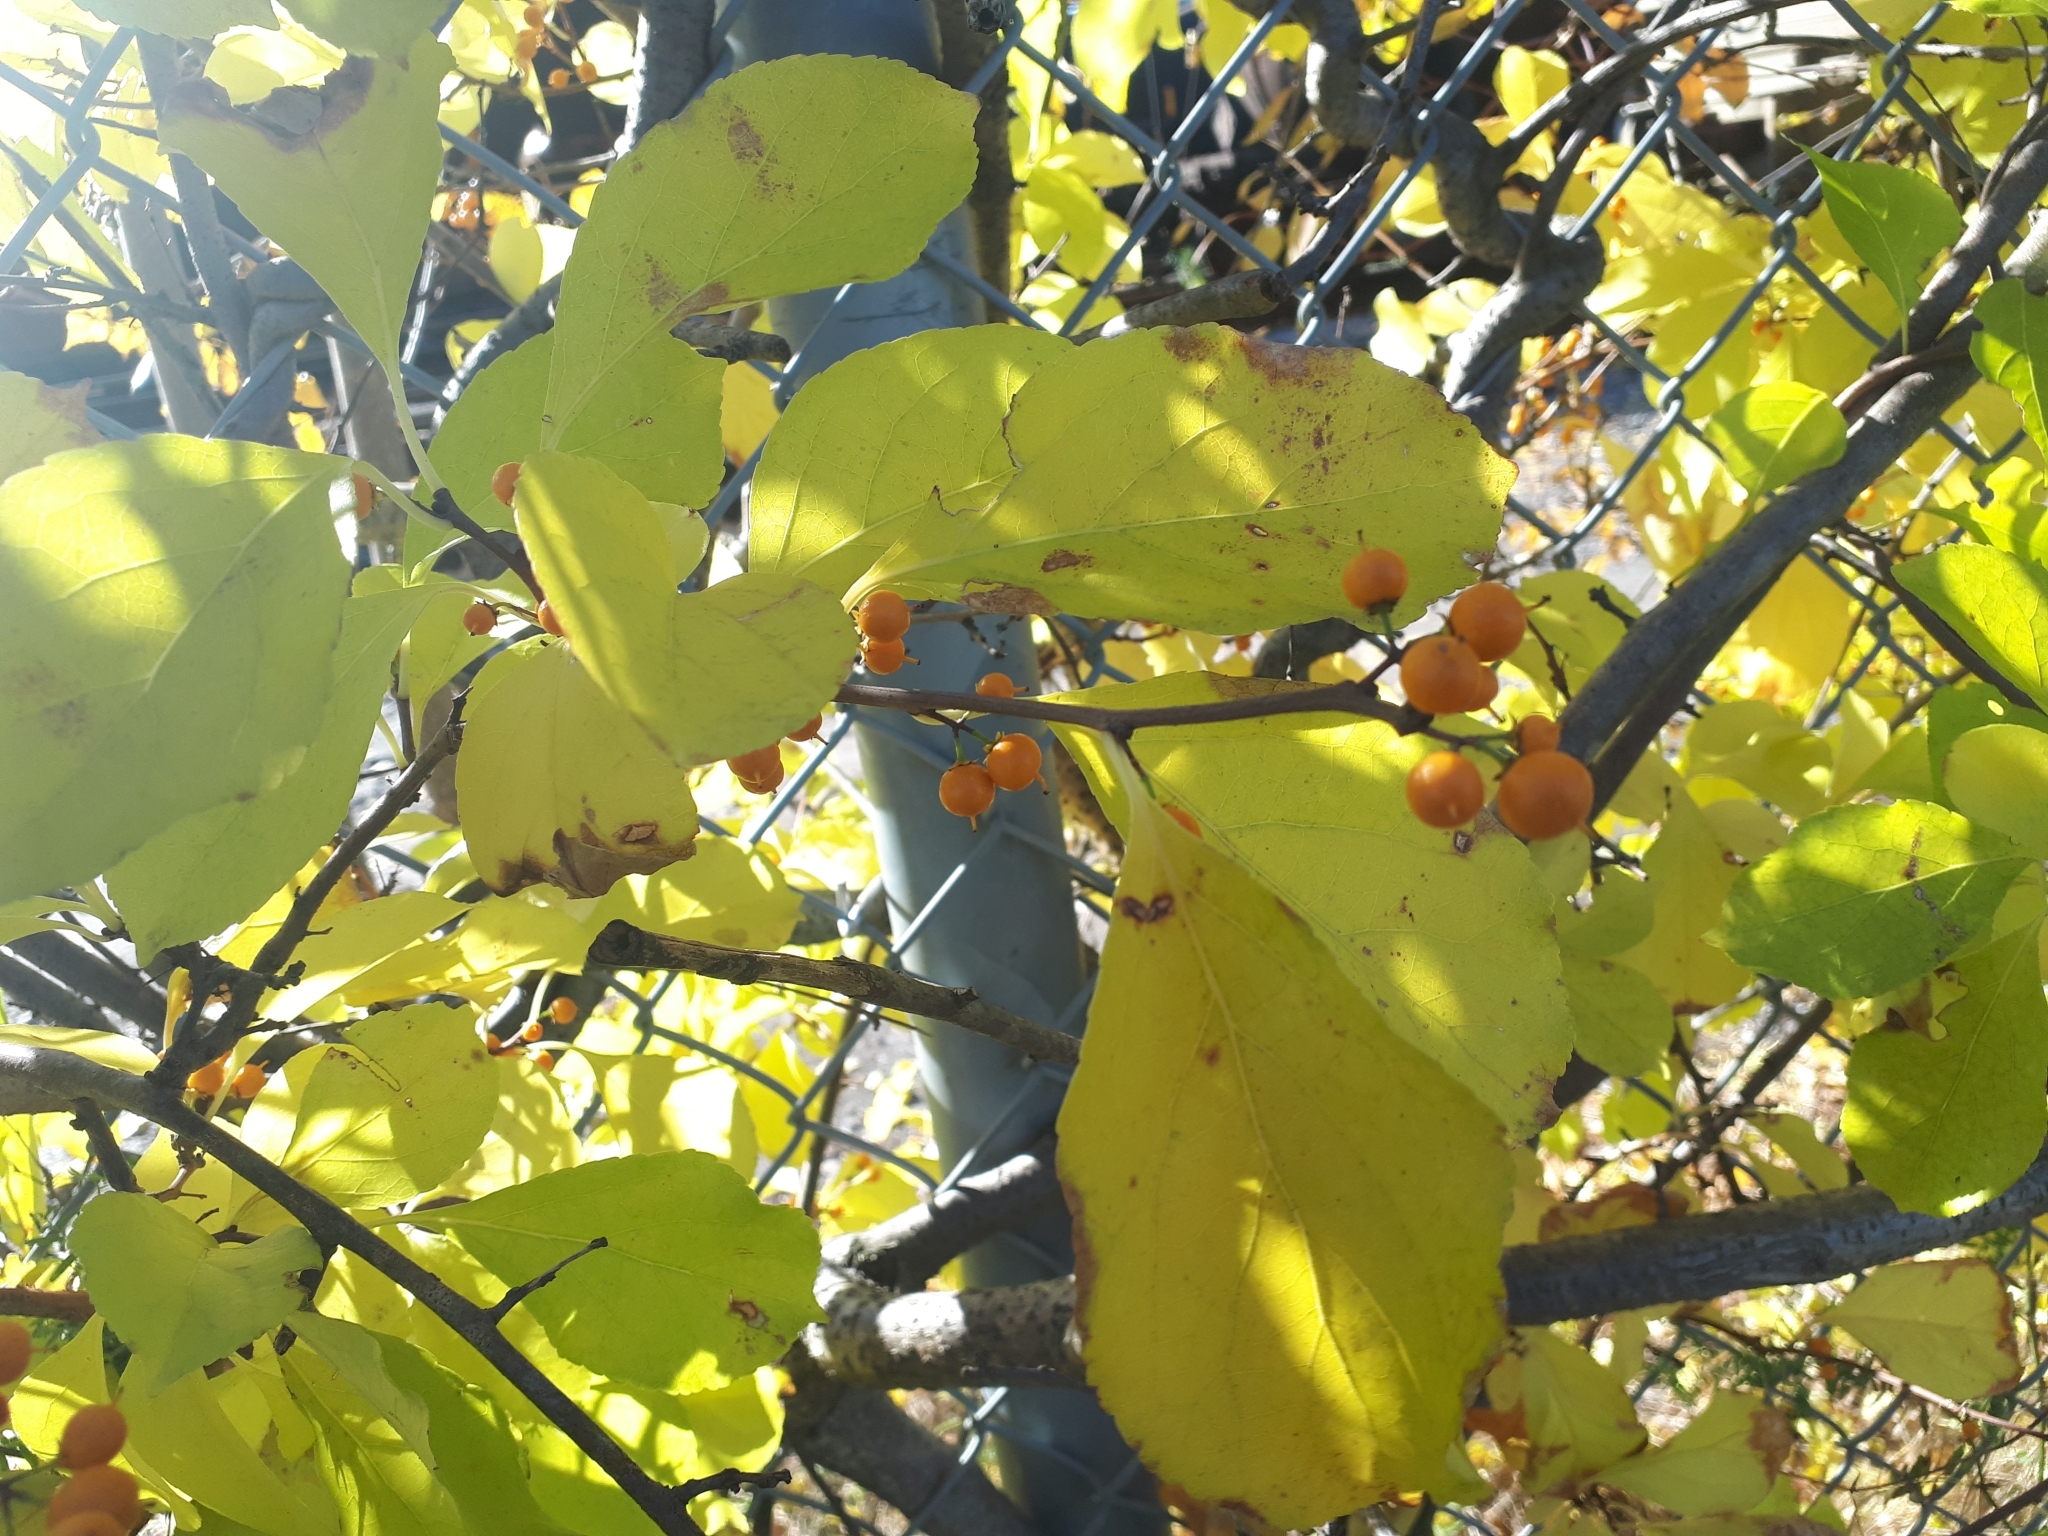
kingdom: Plantae
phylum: Tracheophyta
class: Magnoliopsida
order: Celastrales
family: Celastraceae
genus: Celastrus
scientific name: Celastrus orbiculatus
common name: Oriental bittersweet
